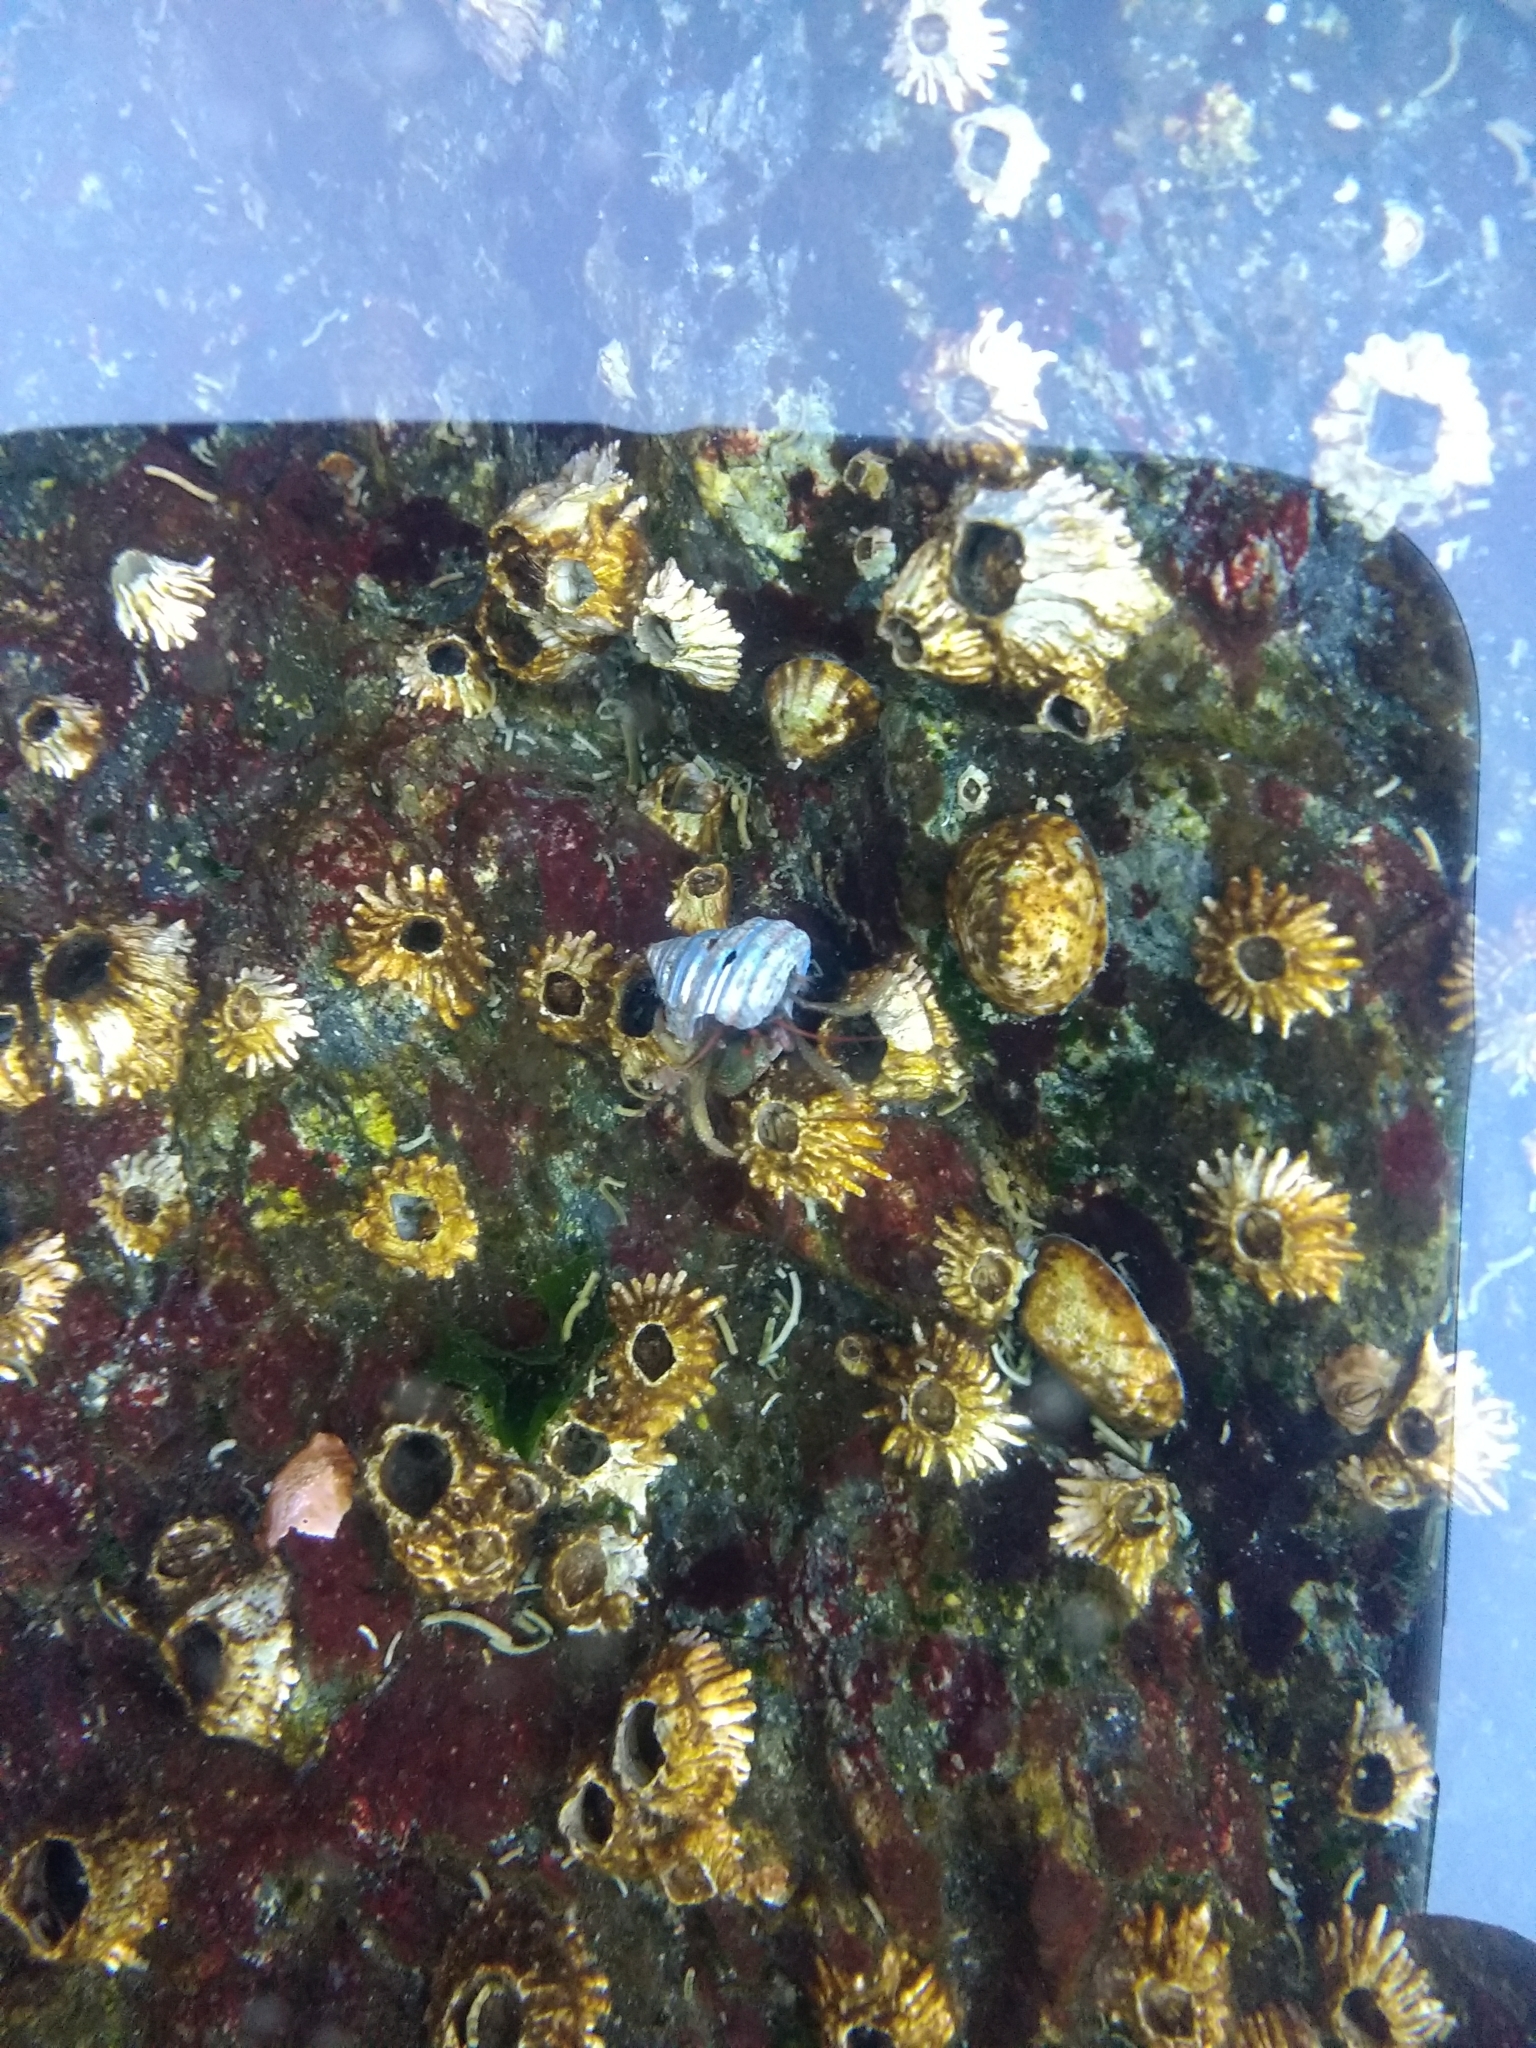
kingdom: Animalia
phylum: Arthropoda
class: Malacostraca
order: Decapoda
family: Paguridae
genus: Pagurus
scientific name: Pagurus granosimanus
